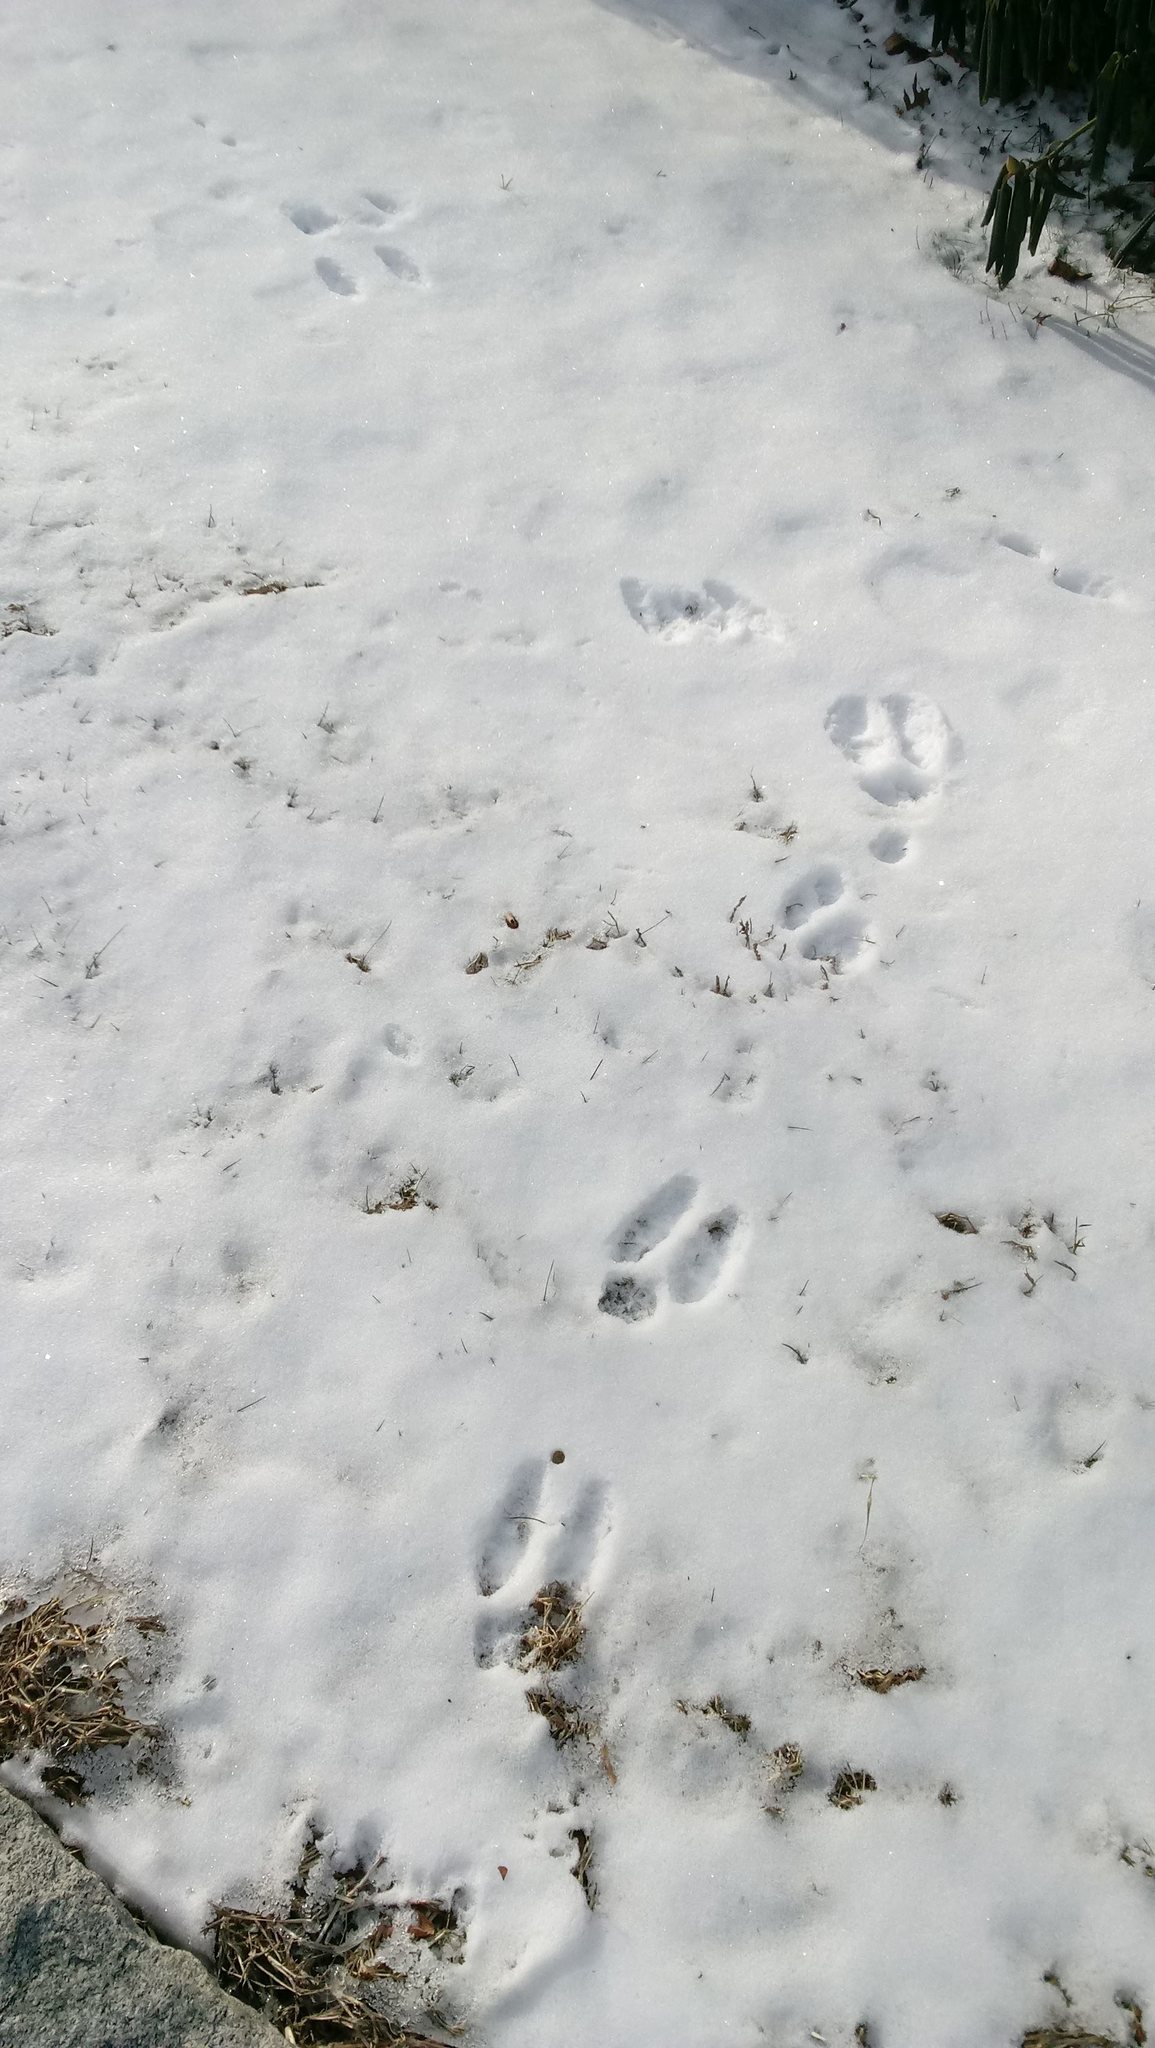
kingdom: Animalia
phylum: Chordata
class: Mammalia
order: Lagomorpha
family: Leporidae
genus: Sylvilagus
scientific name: Sylvilagus floridanus
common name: Eastern cottontail
